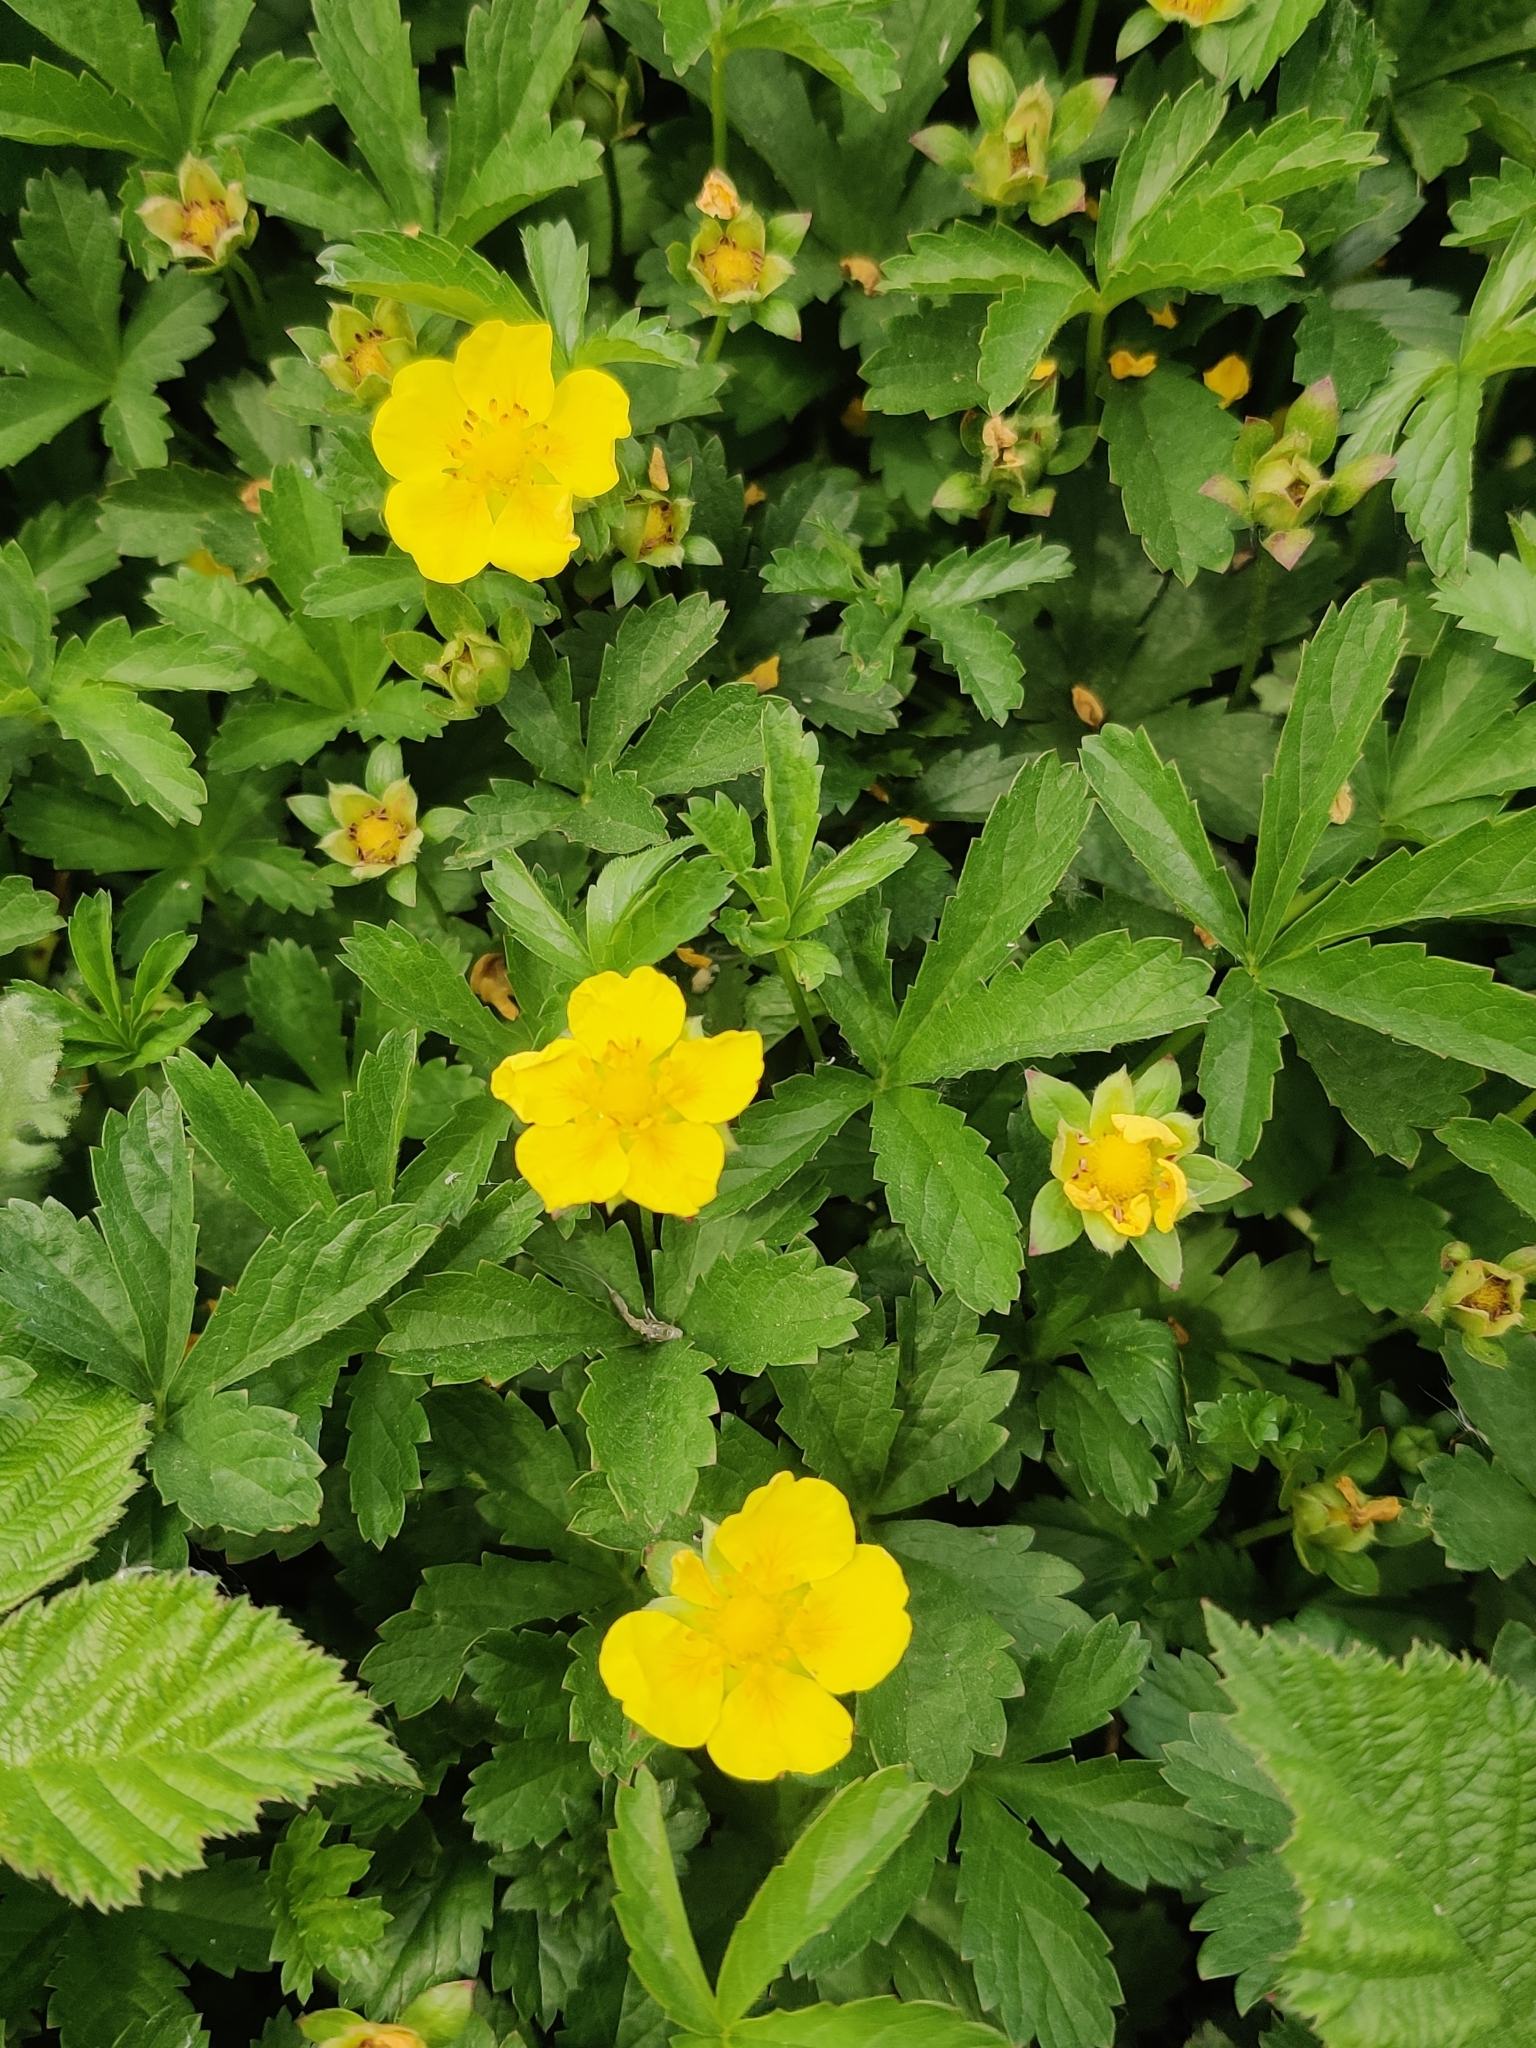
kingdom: Plantae
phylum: Tracheophyta
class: Magnoliopsida
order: Rosales
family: Rosaceae
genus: Potentilla
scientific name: Potentilla reptans
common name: Creeping cinquefoil
